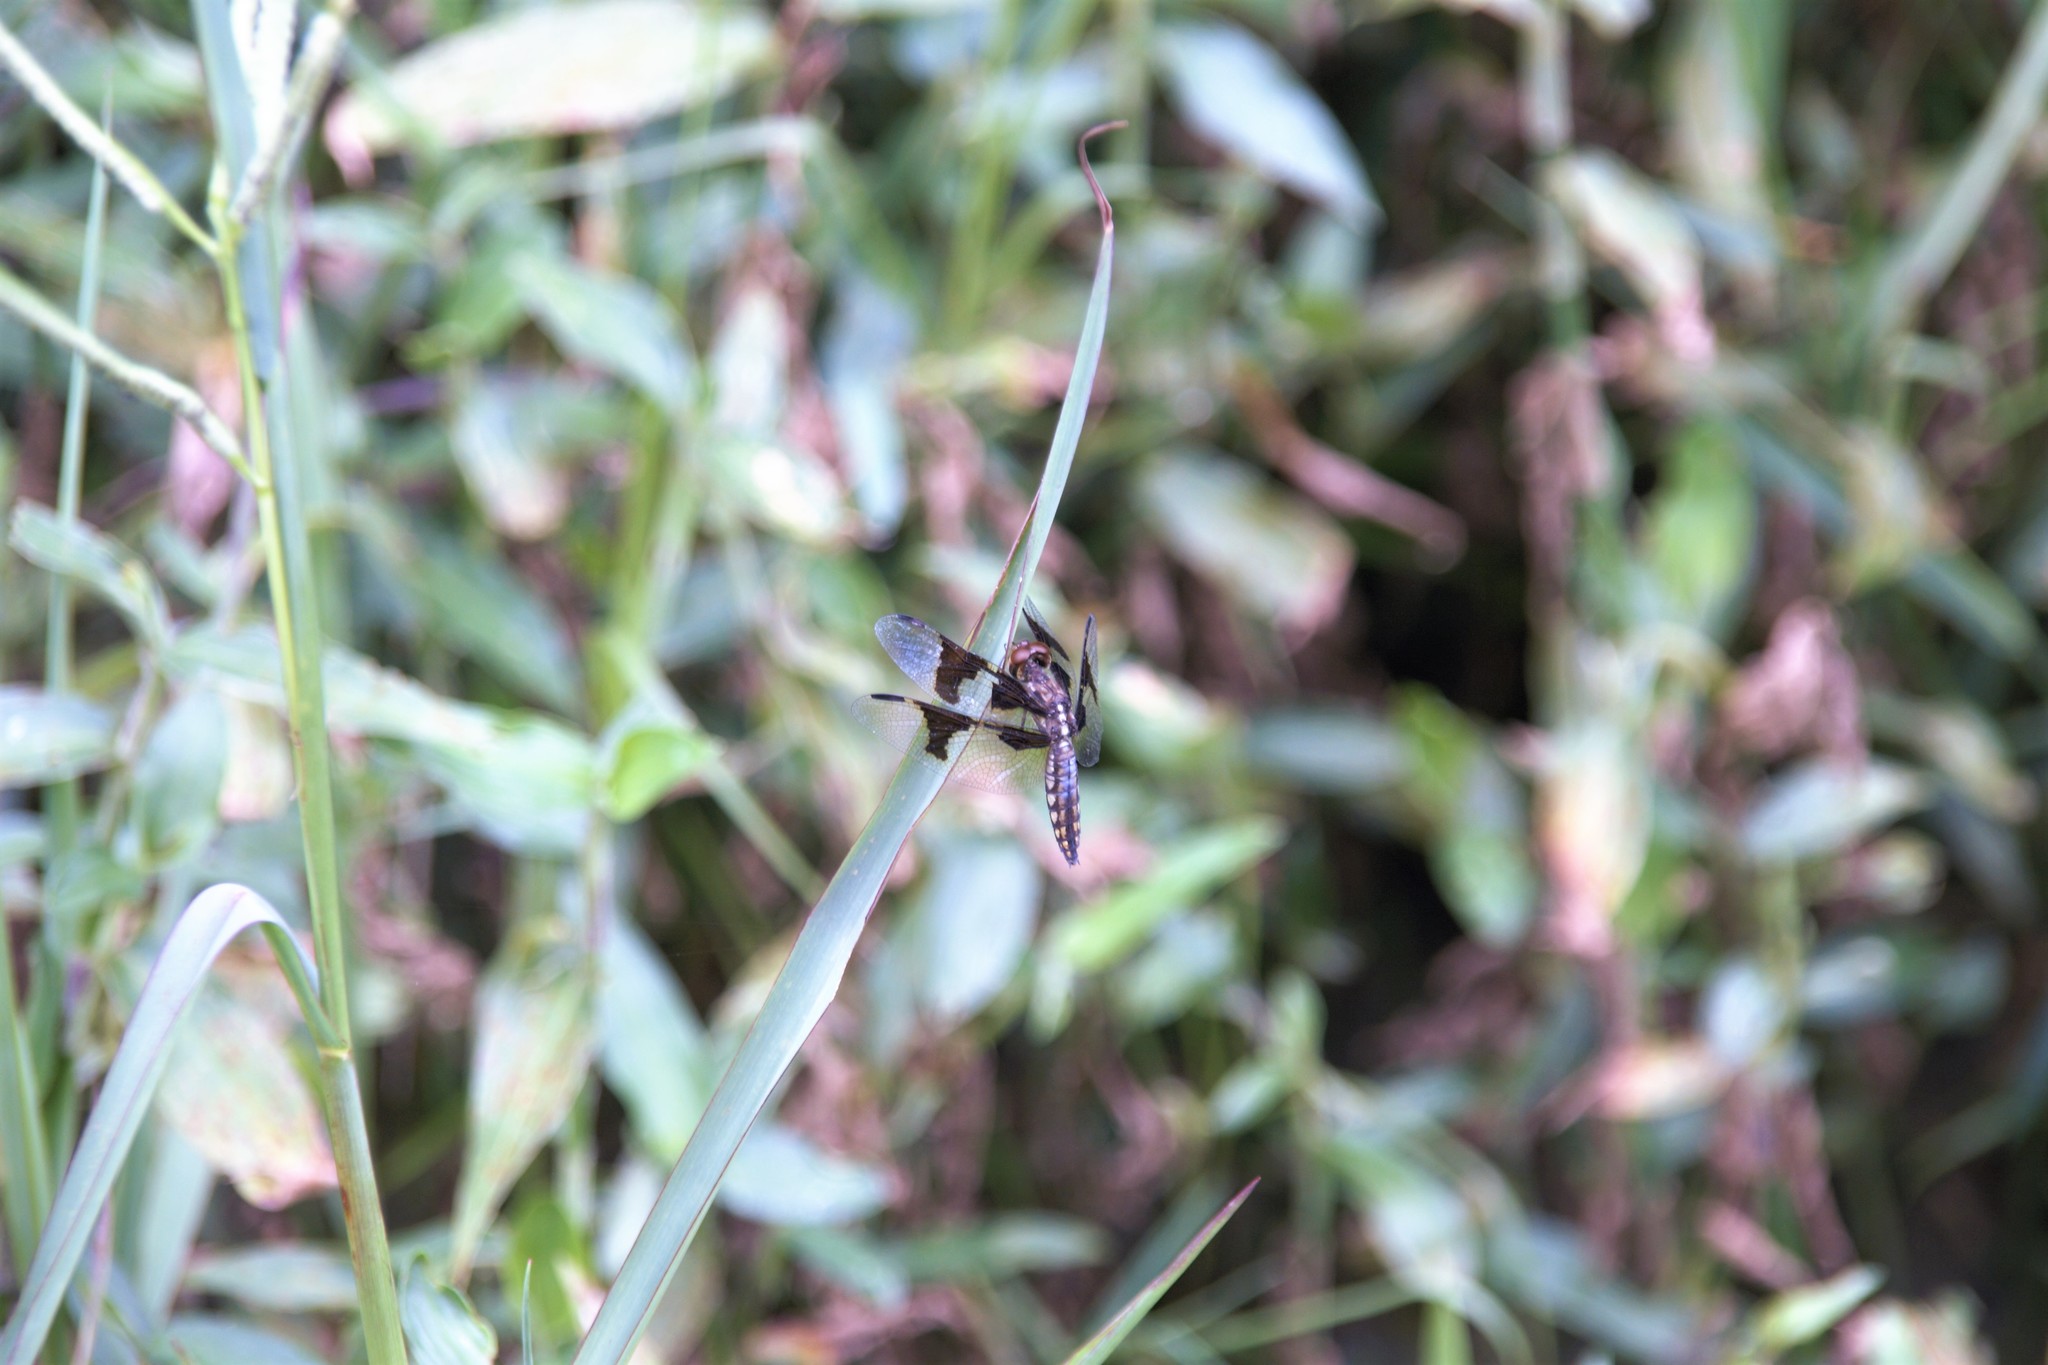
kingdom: Animalia
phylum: Arthropoda
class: Insecta
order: Odonata
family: Libellulidae
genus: Palpopleura
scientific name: Palpopleura lucia
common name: Lucia widow
